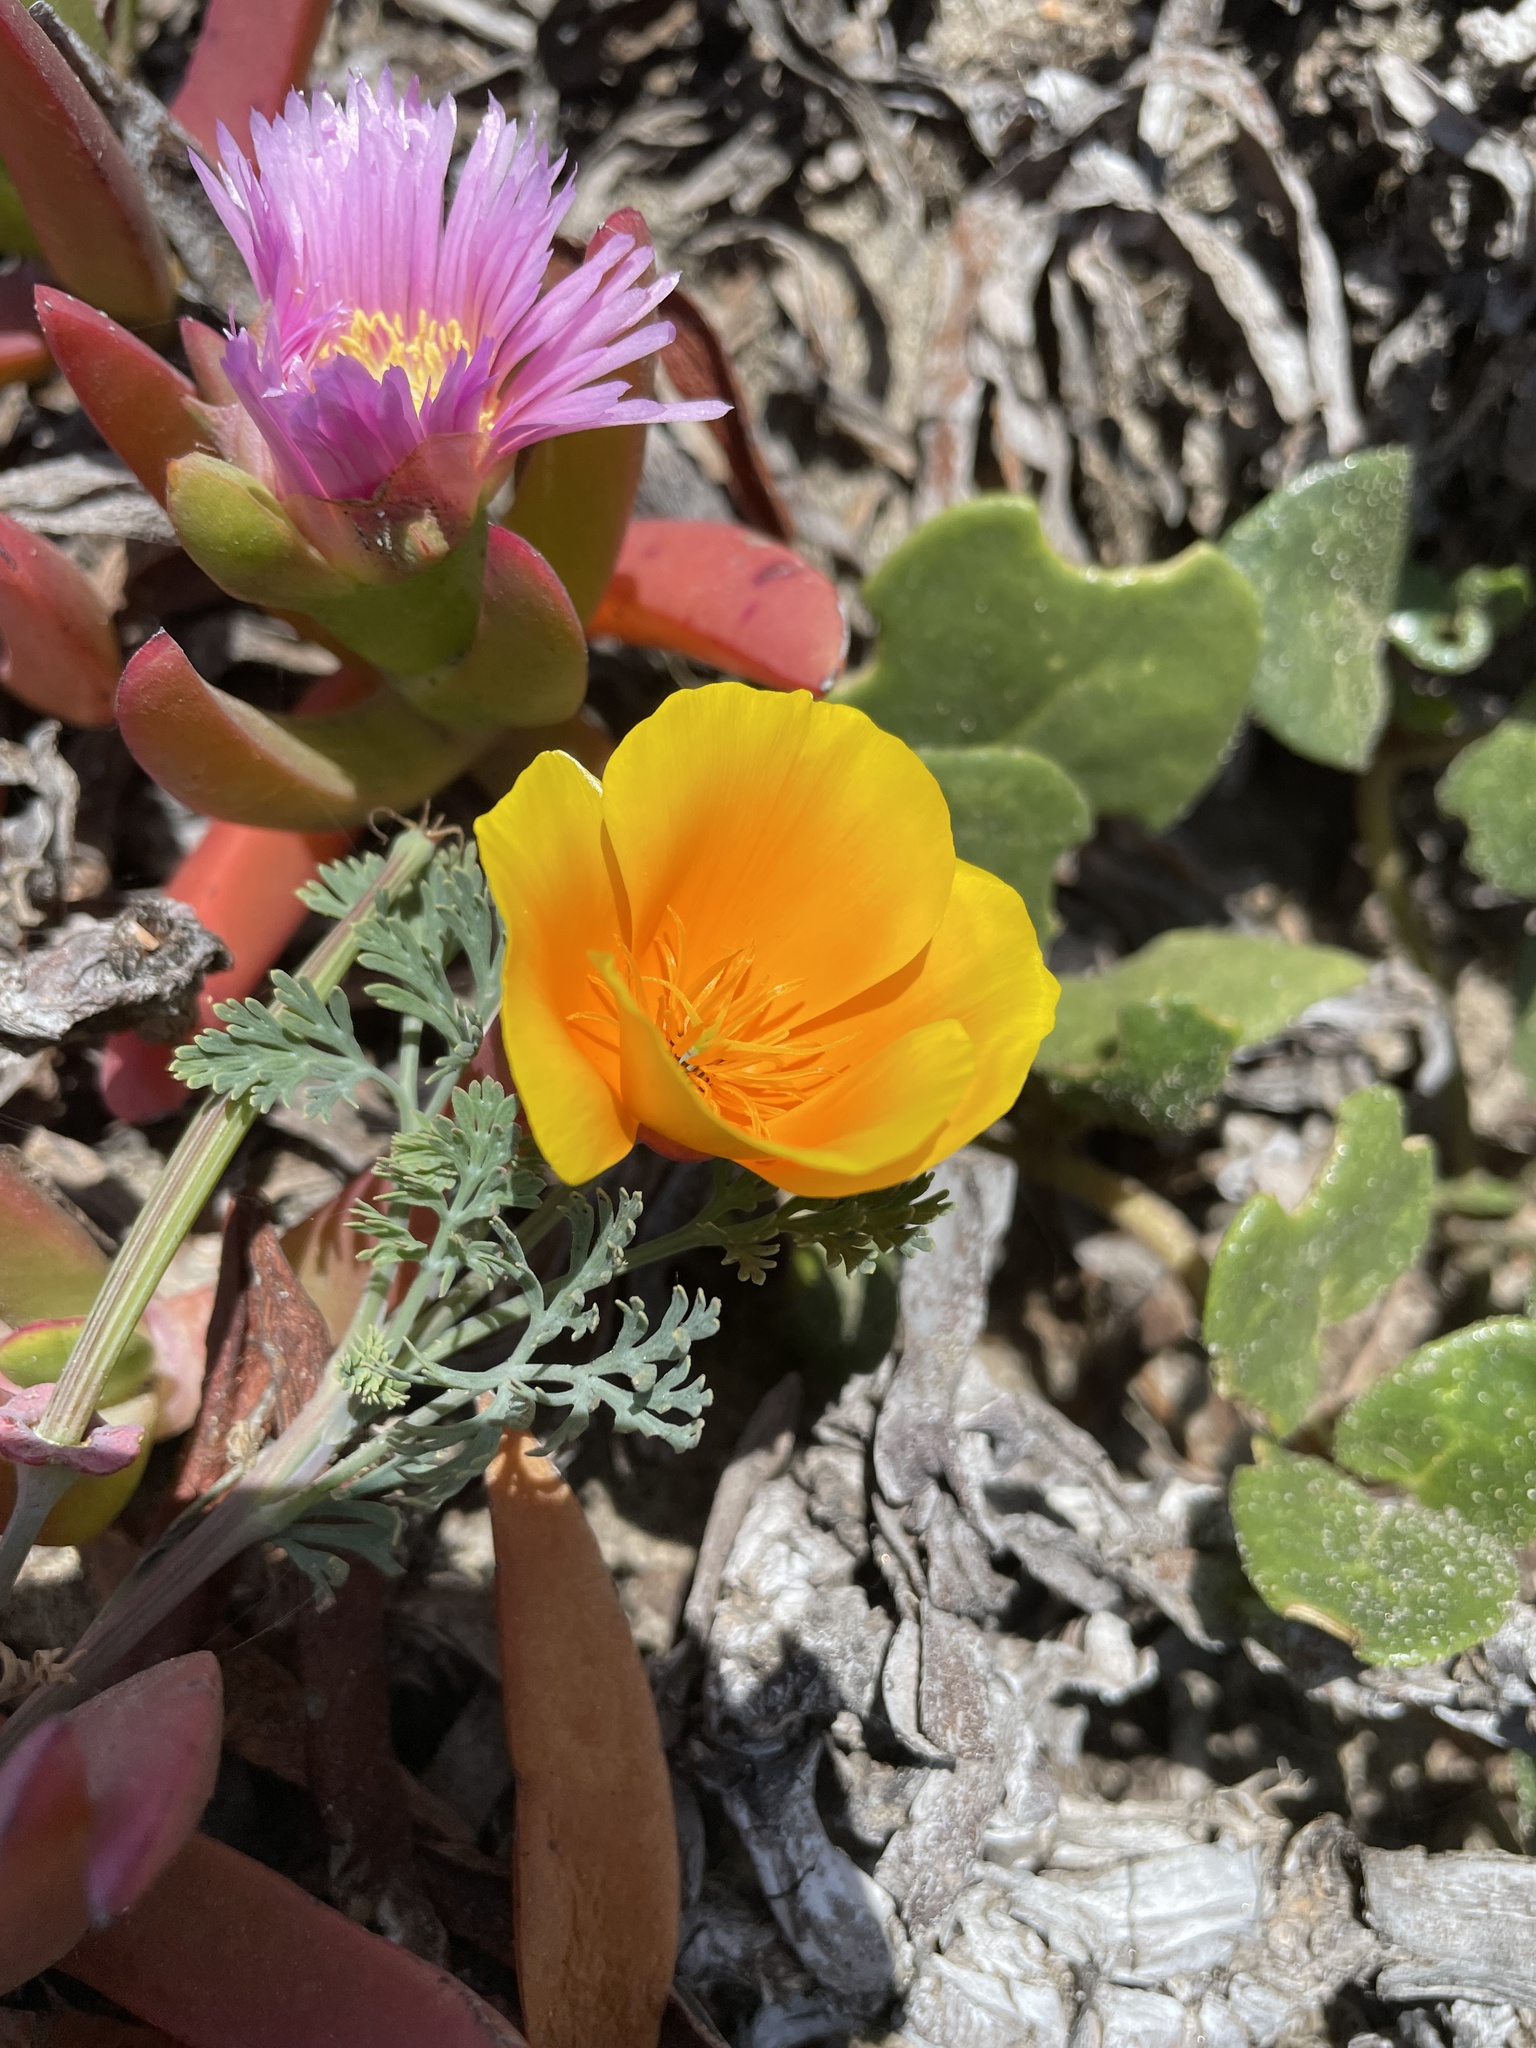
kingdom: Plantae
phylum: Tracheophyta
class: Magnoliopsida
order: Ranunculales
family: Papaveraceae
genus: Eschscholzia
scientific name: Eschscholzia californica
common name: California poppy
